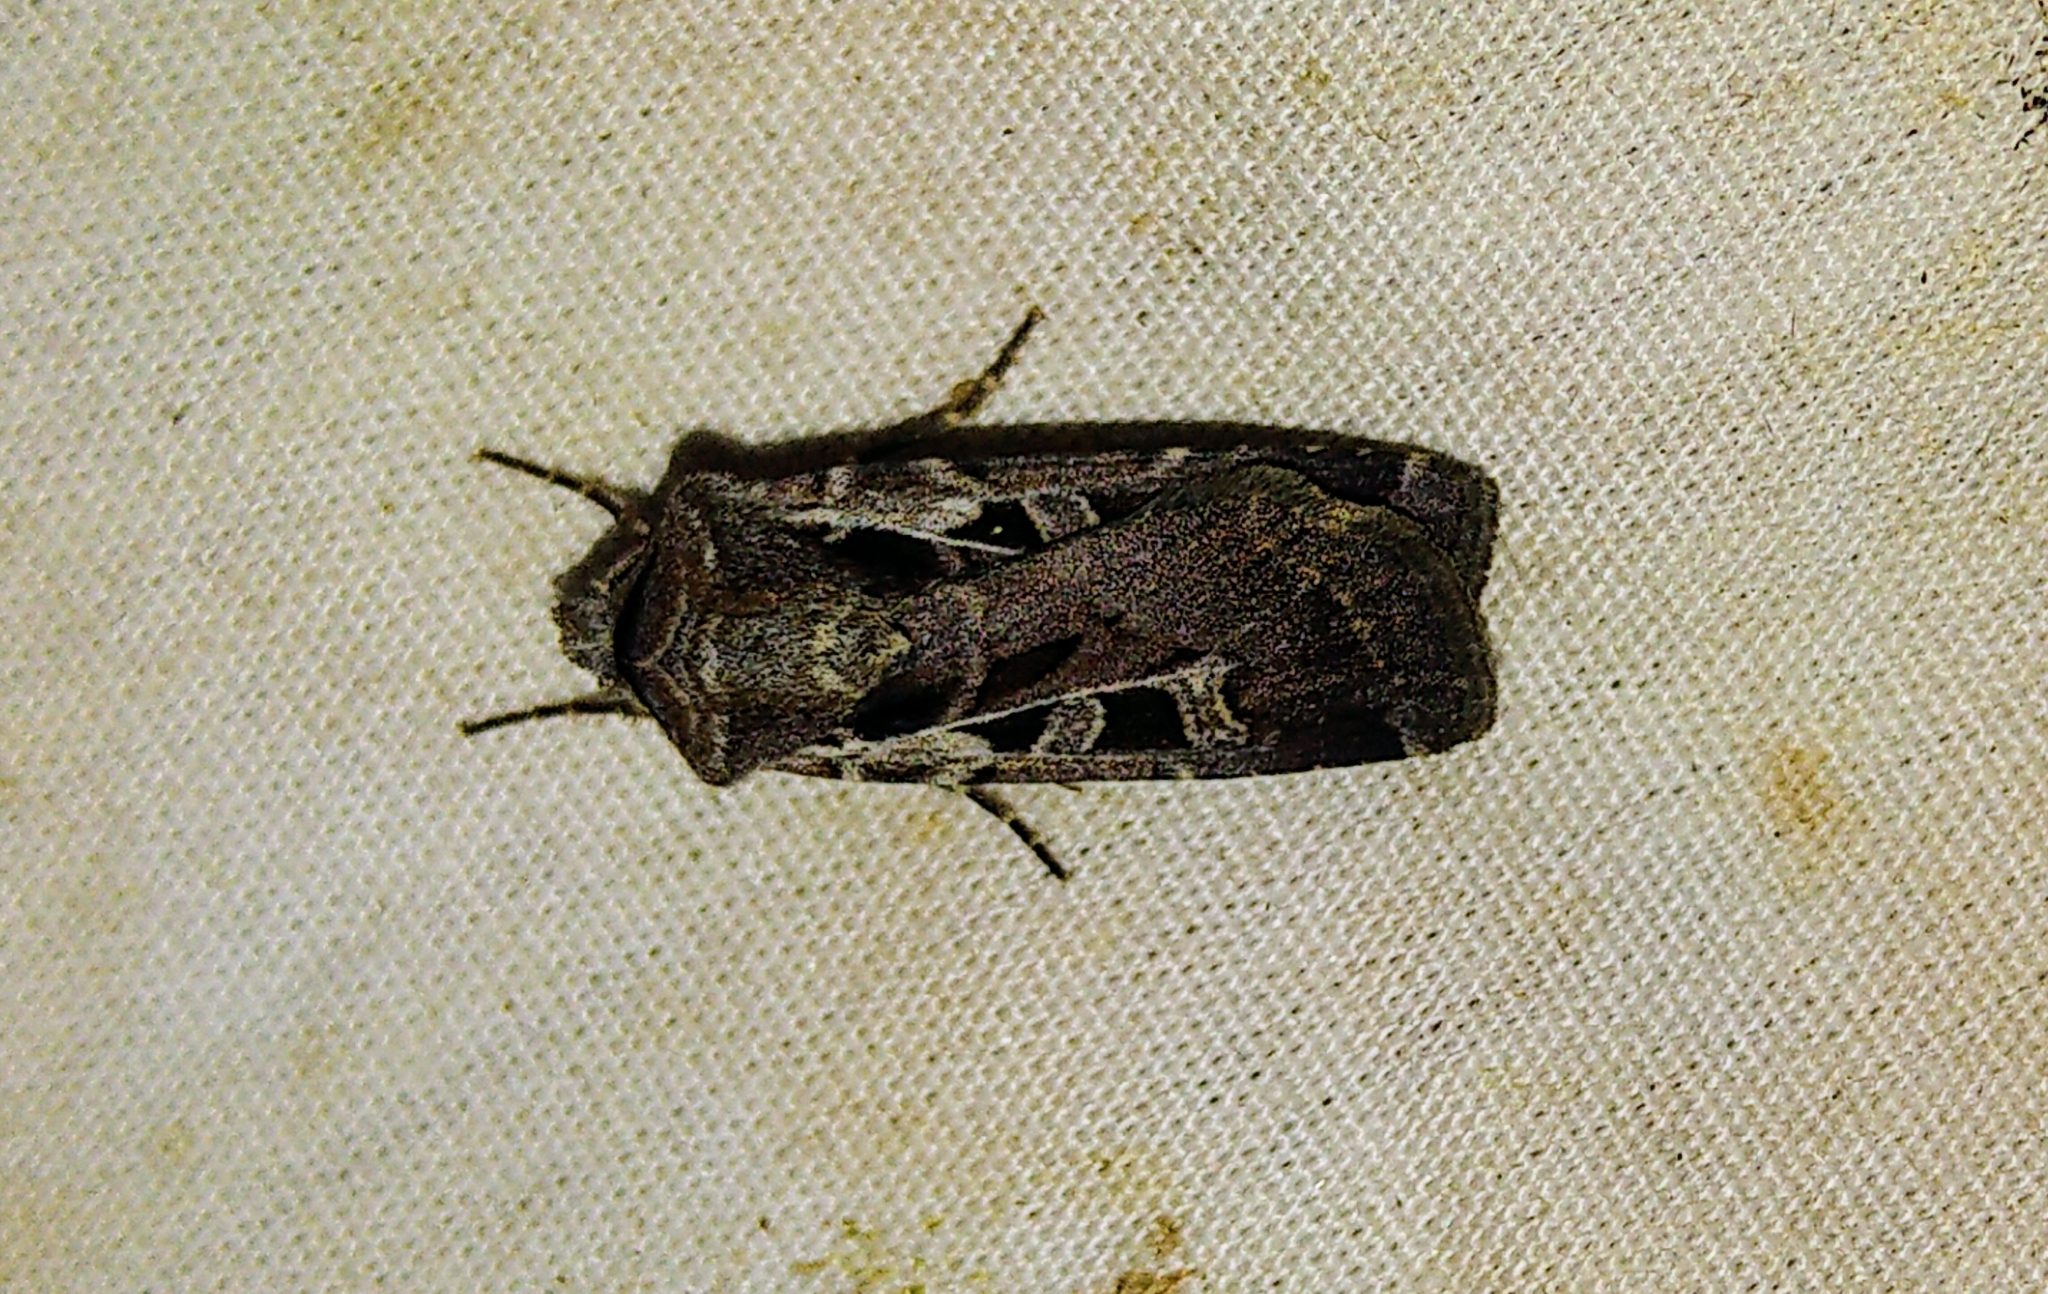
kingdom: Animalia
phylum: Arthropoda
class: Insecta
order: Lepidoptera
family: Noctuidae
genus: Euxoa
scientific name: Euxoa divergens
